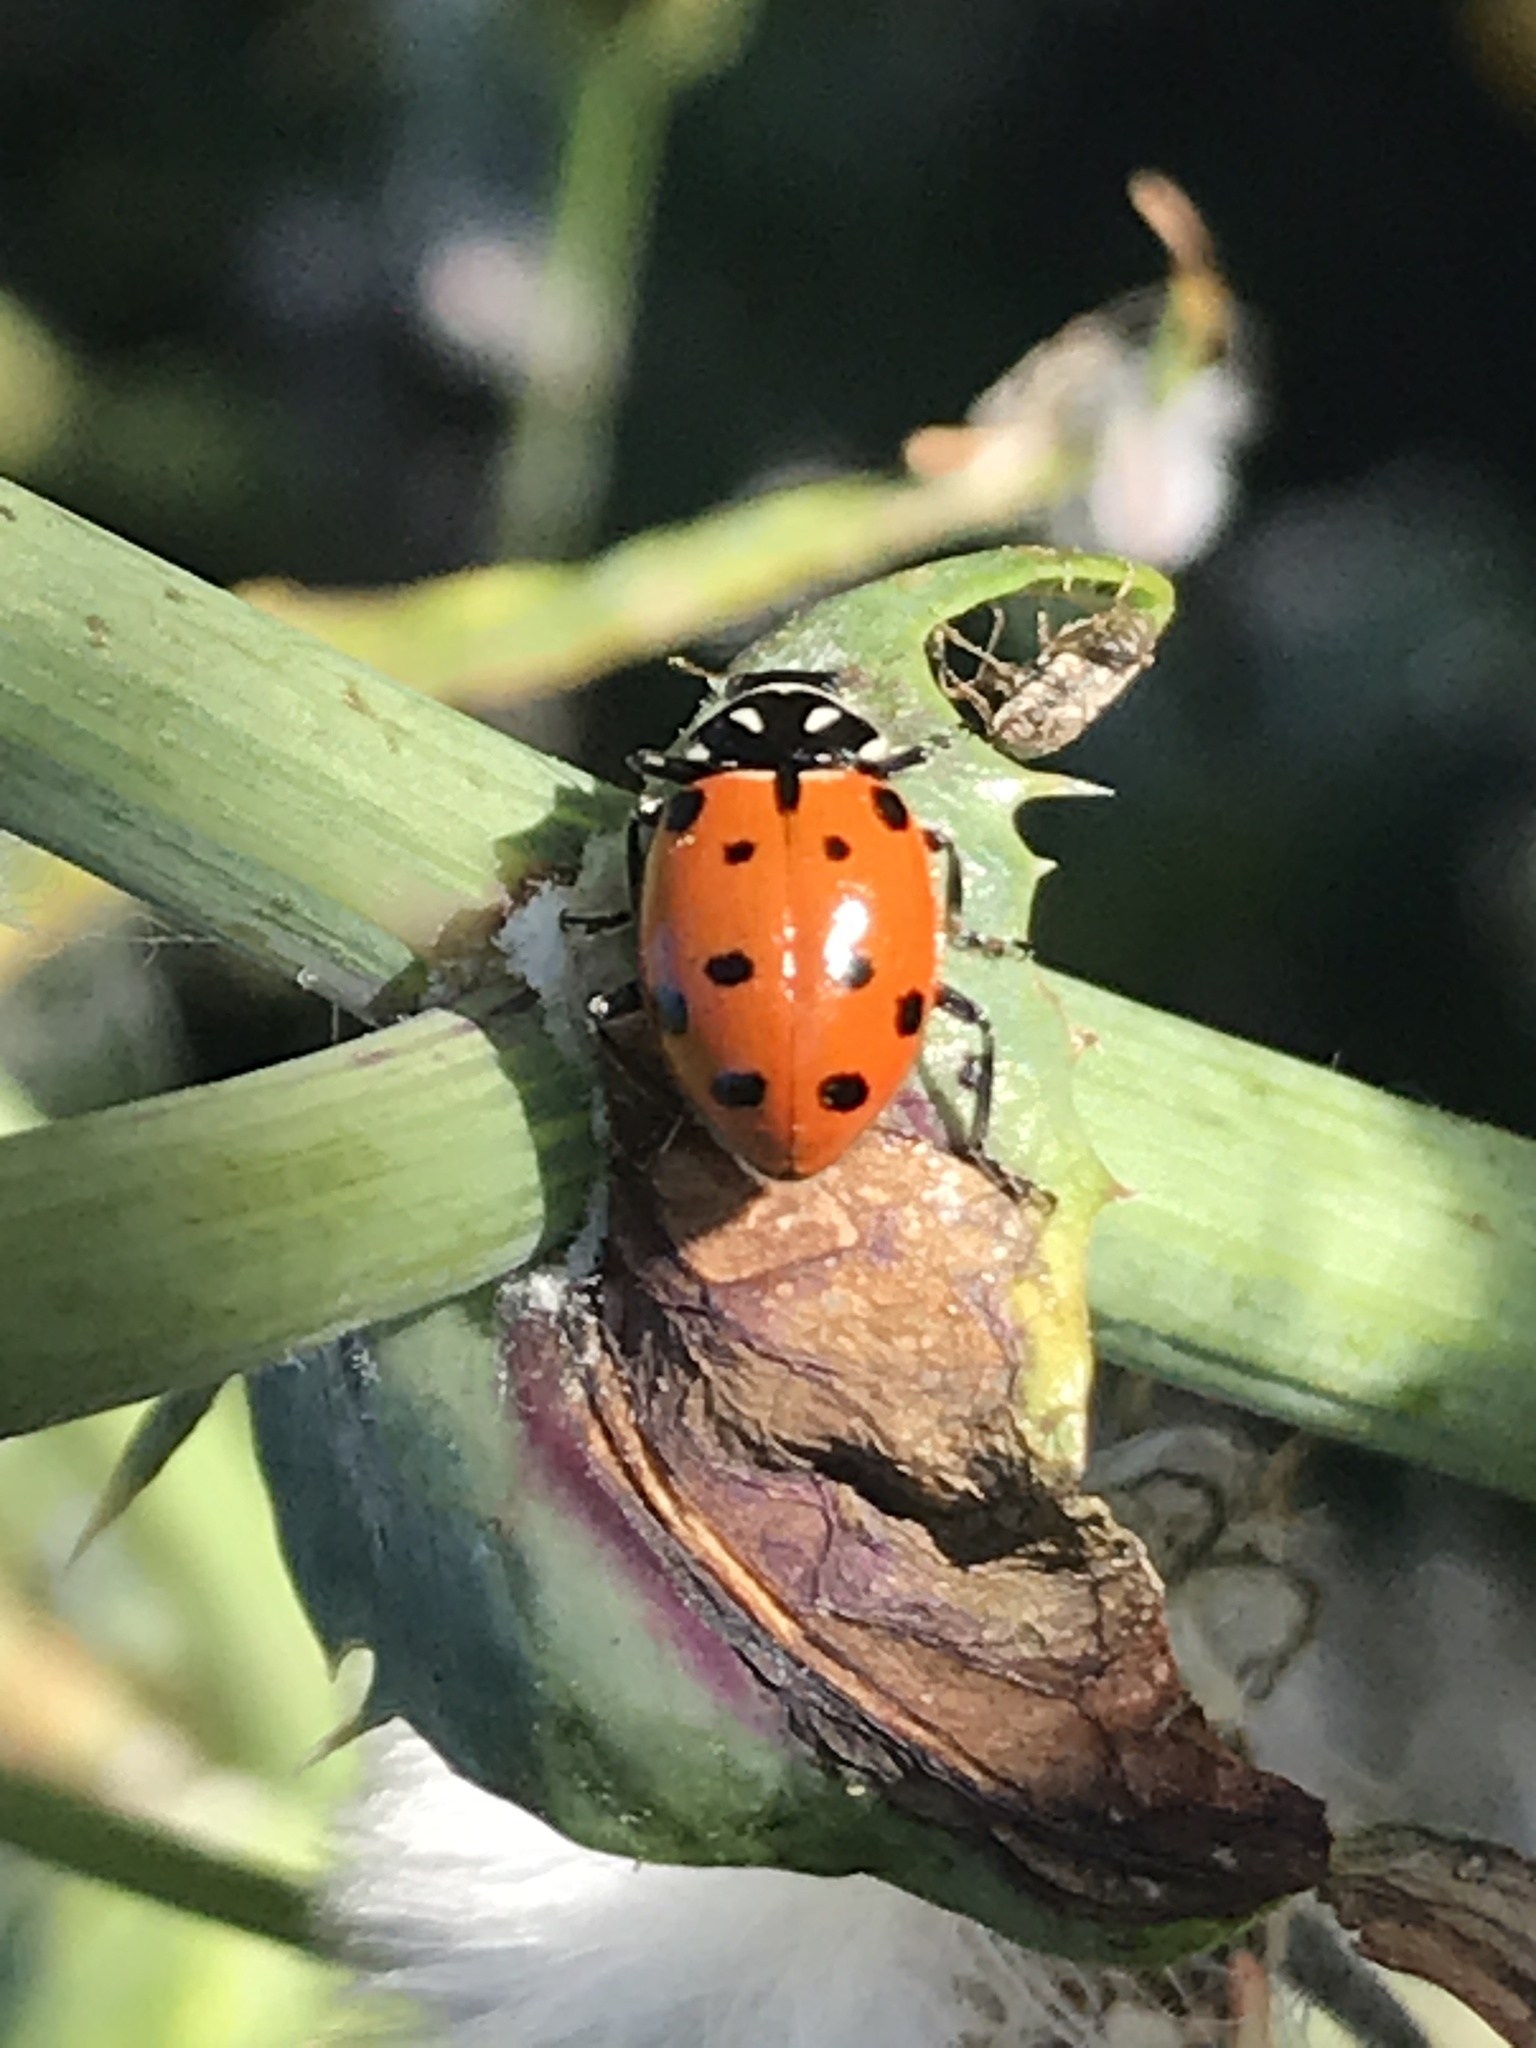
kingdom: Animalia
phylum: Arthropoda
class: Insecta
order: Coleoptera
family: Coccinellidae
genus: Hippodamia
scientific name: Hippodamia convergens
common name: Convergent lady beetle
